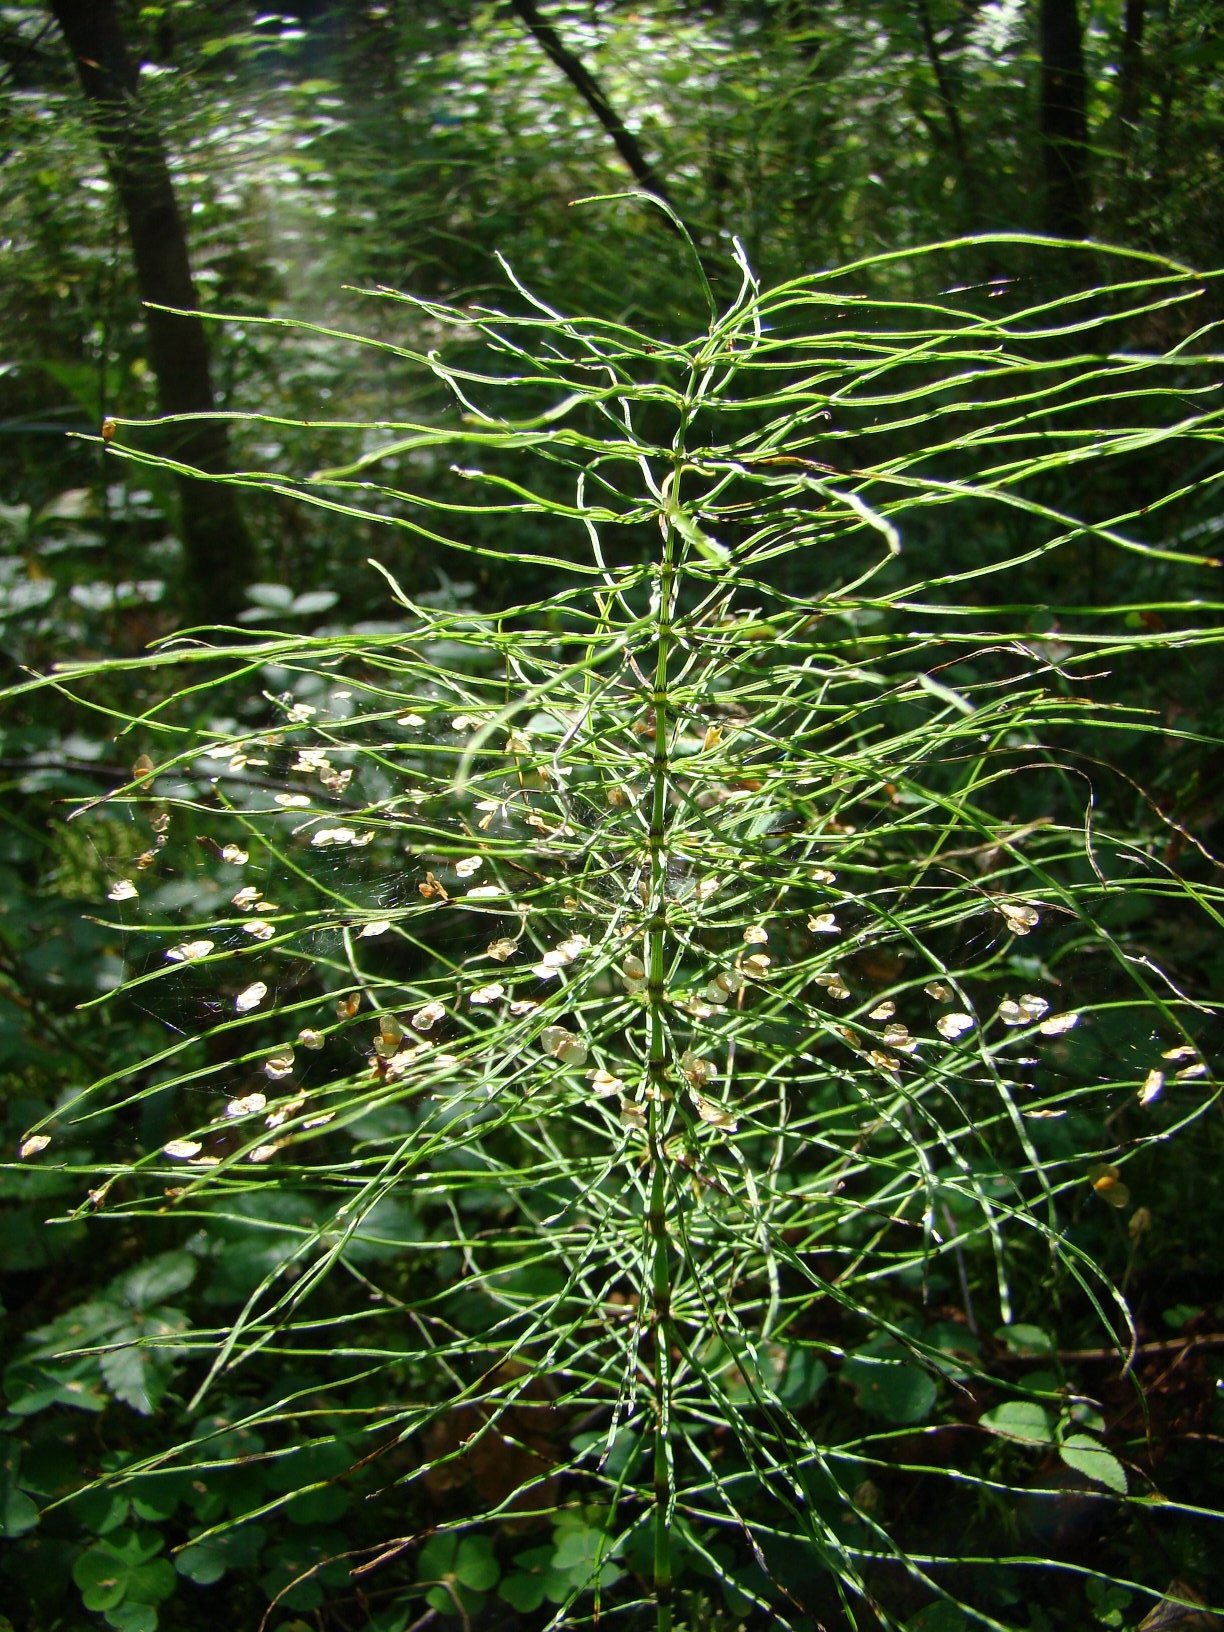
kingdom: Plantae
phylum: Tracheophyta
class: Polypodiopsida
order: Equisetales
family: Equisetaceae
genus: Equisetum
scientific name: Equisetum pratense
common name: Meadow horsetail
